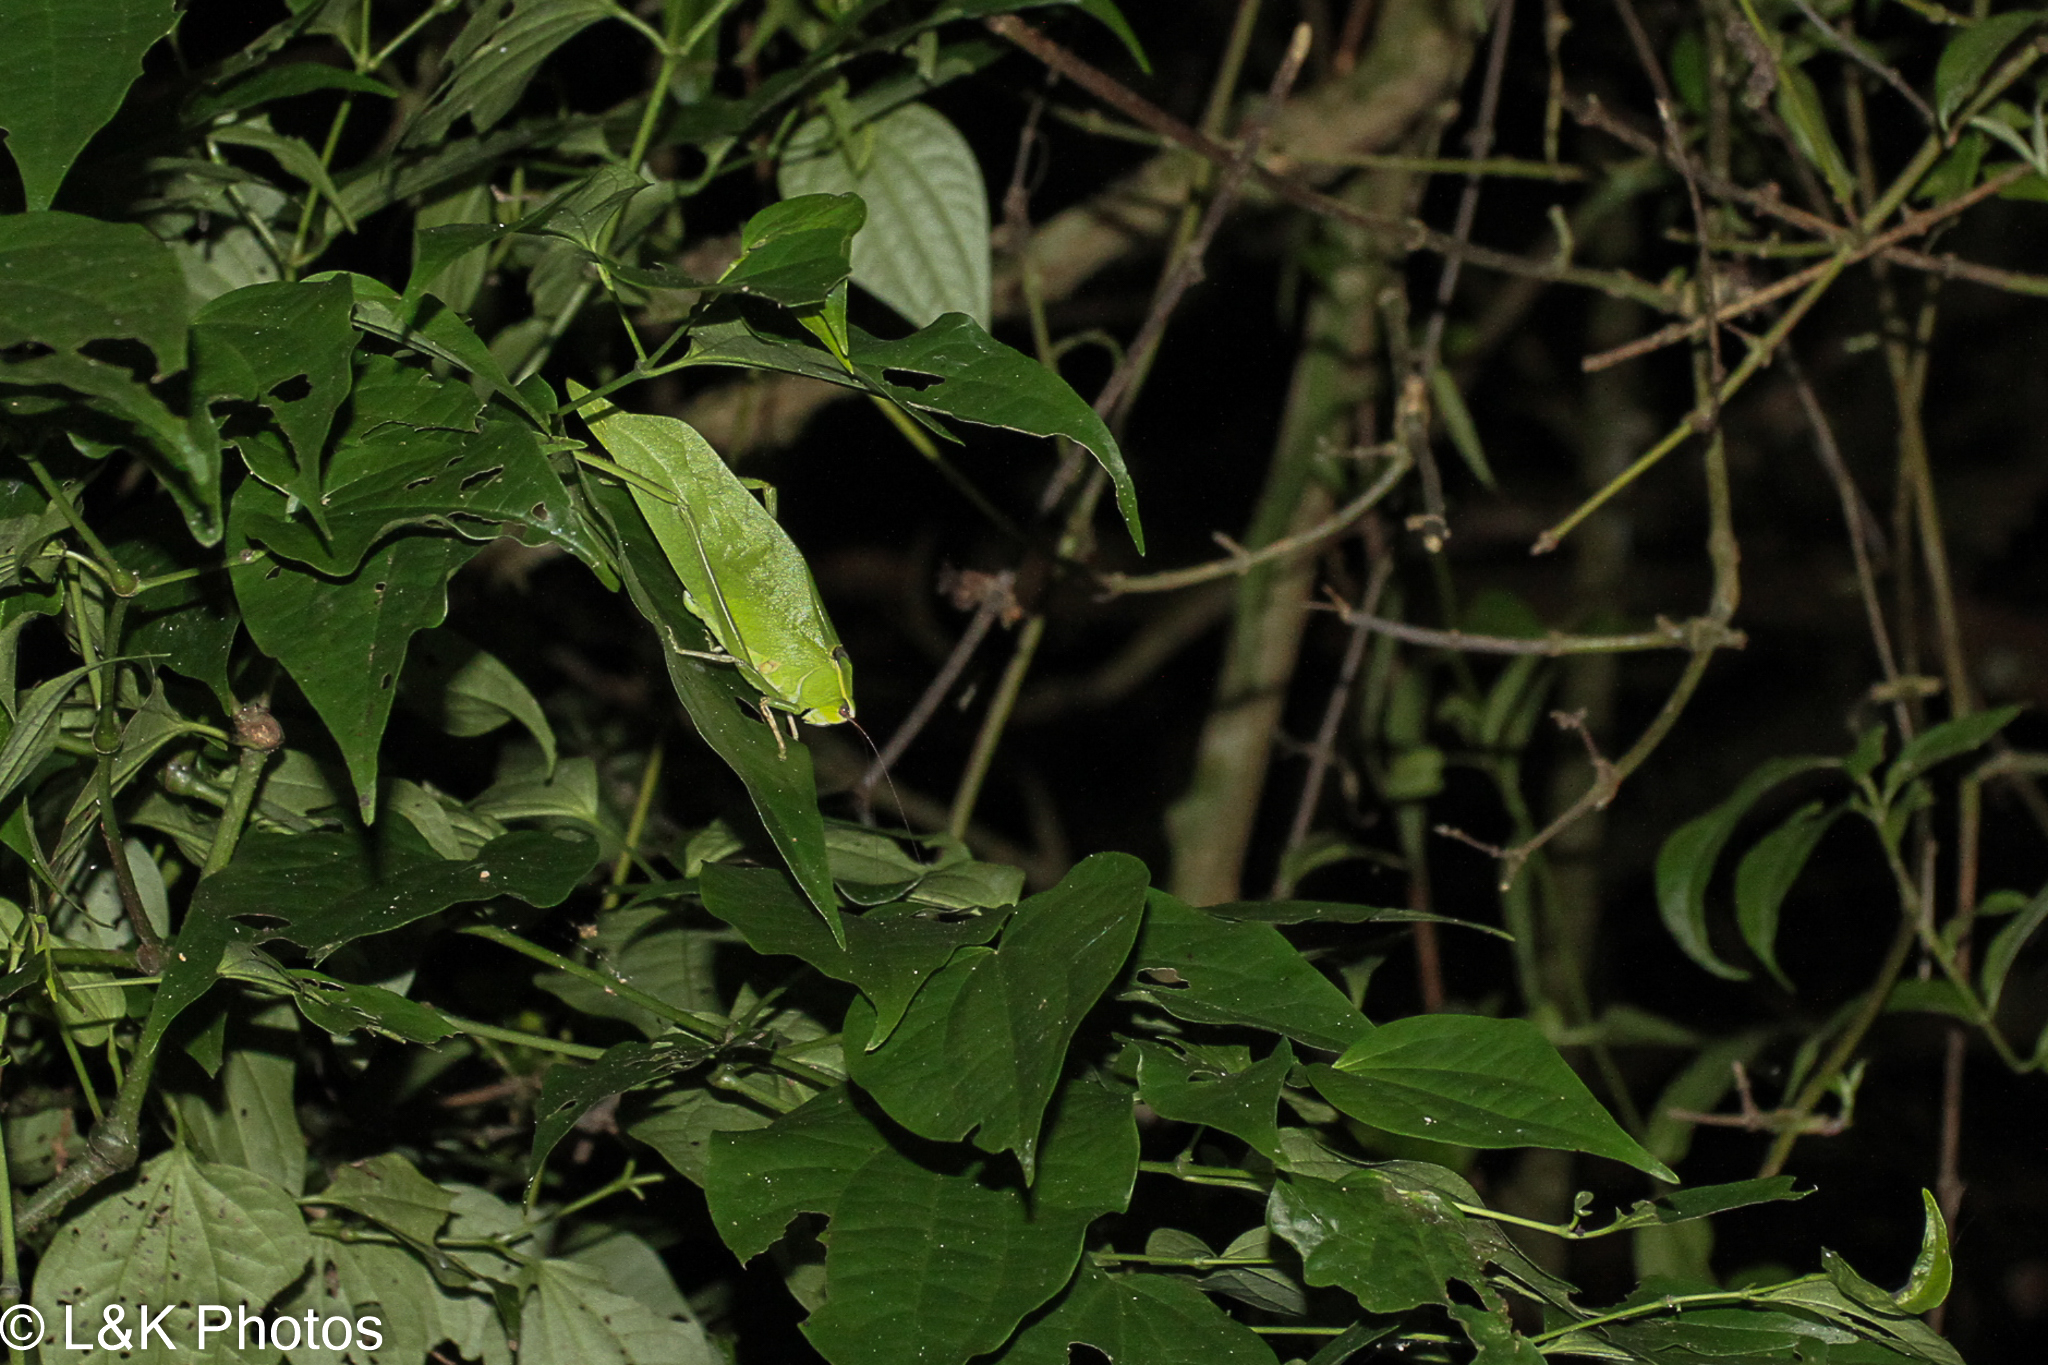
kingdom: Animalia
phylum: Arthropoda
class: Insecta
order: Orthoptera
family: Tettigoniidae
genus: Stilpnochlora
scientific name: Stilpnochlora thoracica
